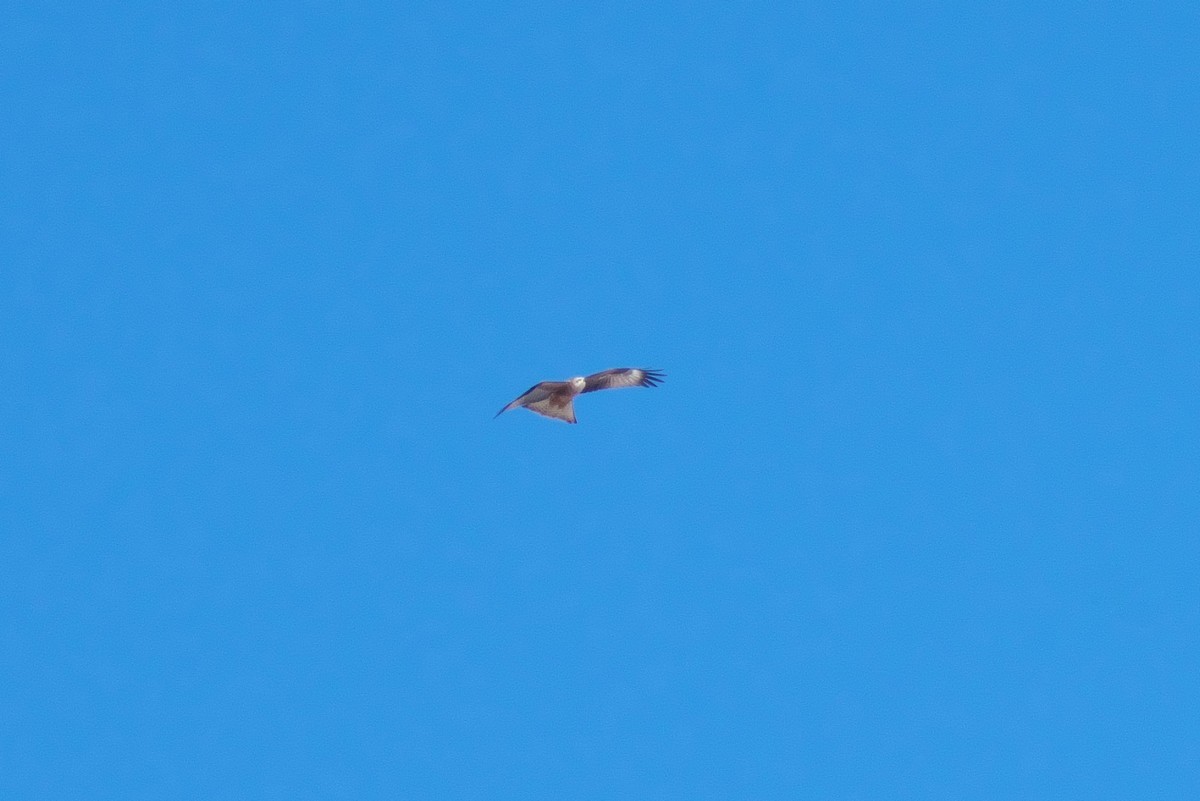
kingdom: Animalia
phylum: Chordata
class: Aves
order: Accipitriformes
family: Accipitridae
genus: Milvus
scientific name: Milvus migrans
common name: Black kite
